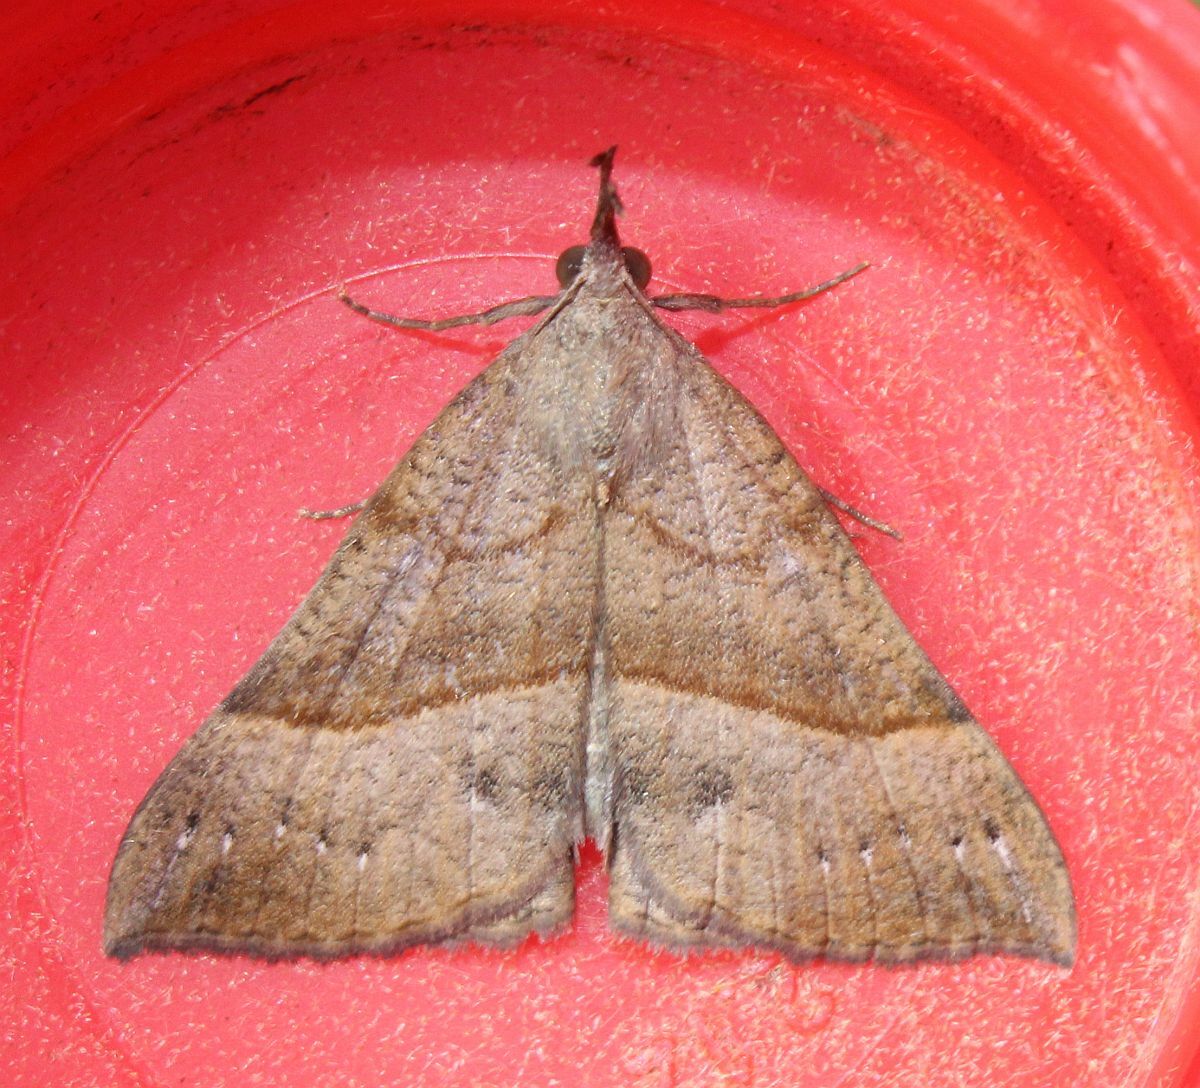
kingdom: Animalia
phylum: Arthropoda
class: Insecta
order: Lepidoptera
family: Erebidae
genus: Hypena
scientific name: Hypena proboscidalis
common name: Snout
